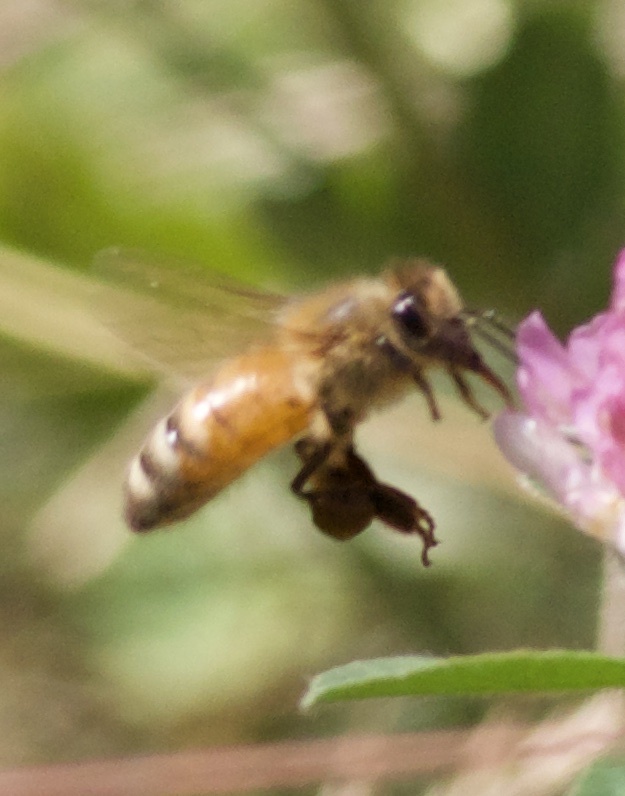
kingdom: Animalia
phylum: Arthropoda
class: Insecta
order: Hymenoptera
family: Apidae
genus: Apis
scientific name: Apis mellifera
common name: Honey bee
